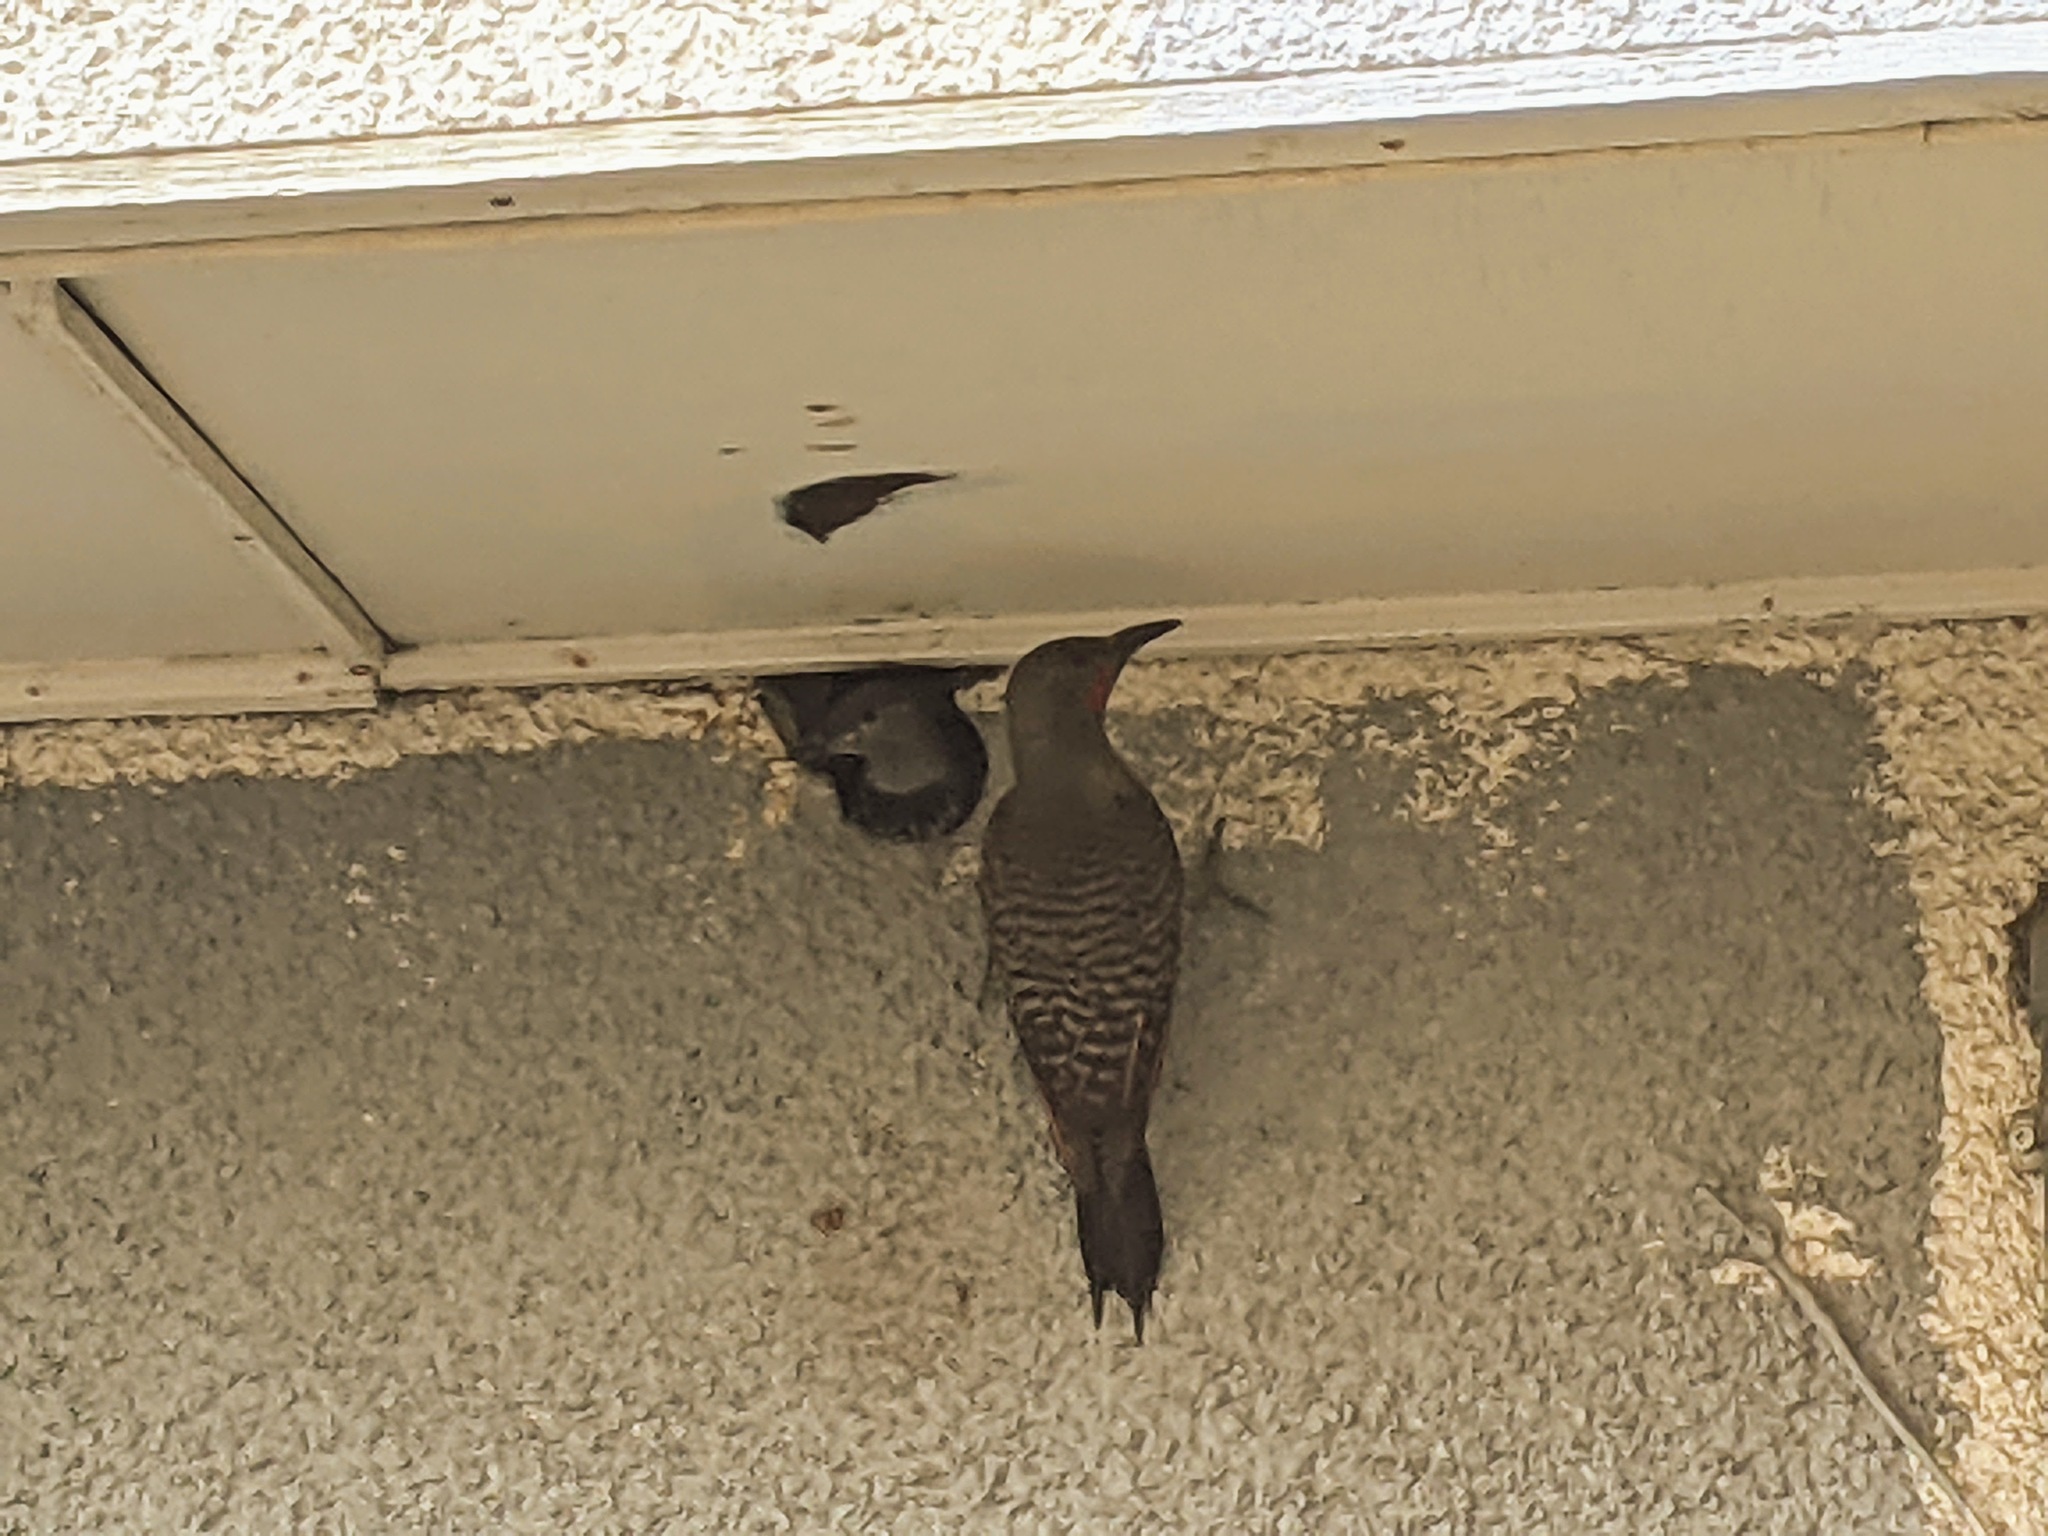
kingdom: Animalia
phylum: Chordata
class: Aves
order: Piciformes
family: Picidae
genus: Colaptes
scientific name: Colaptes auratus
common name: Northern flicker
